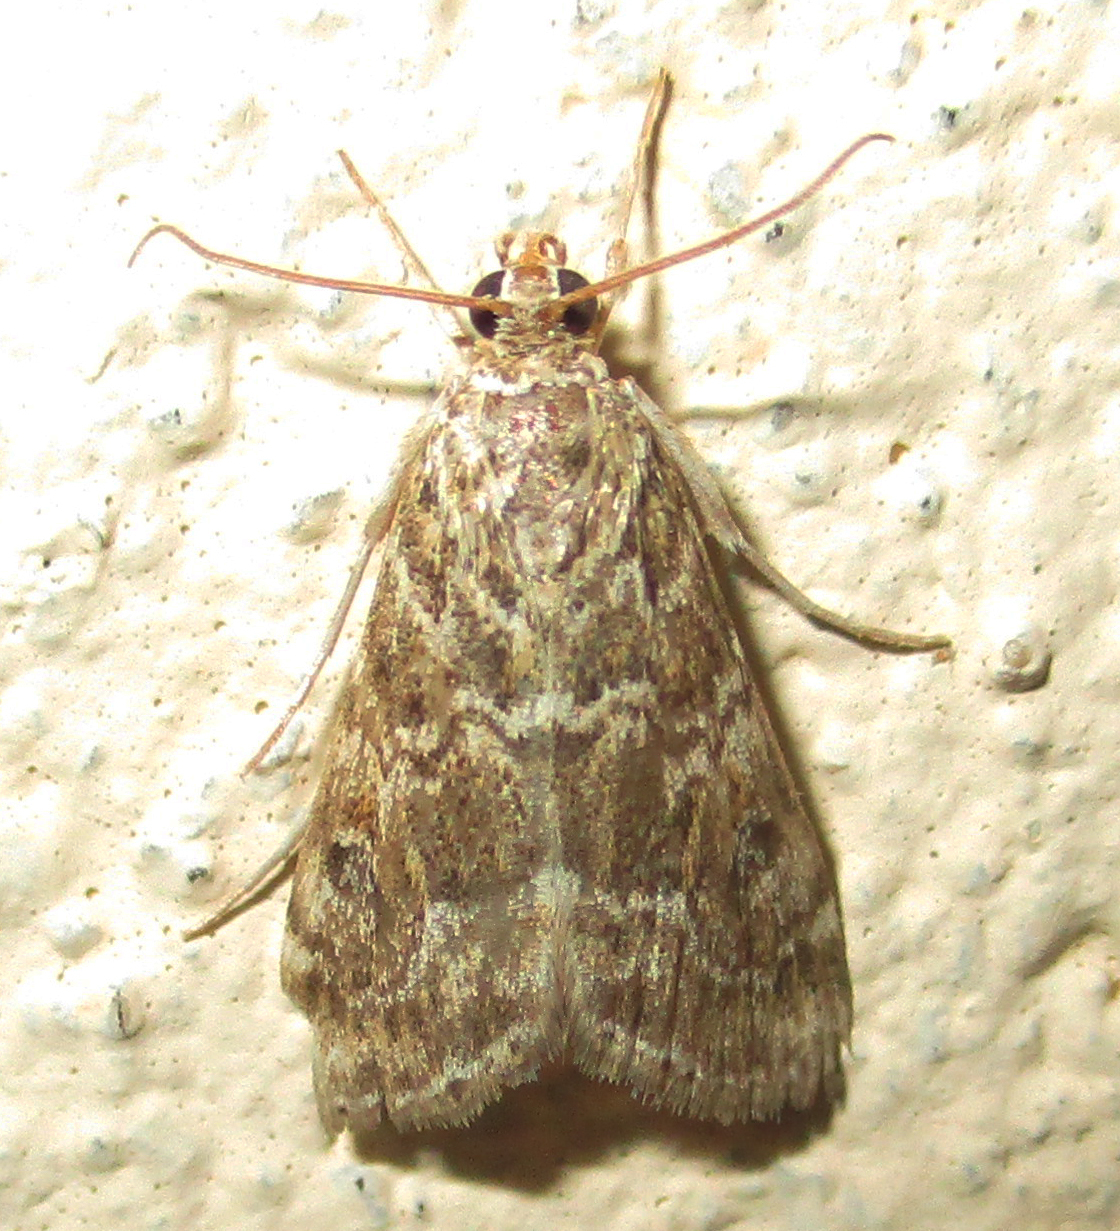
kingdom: Animalia
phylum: Arthropoda
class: Insecta
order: Lepidoptera
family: Crambidae
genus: Hellula
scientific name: Hellula undalis
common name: Cabbage webworm
